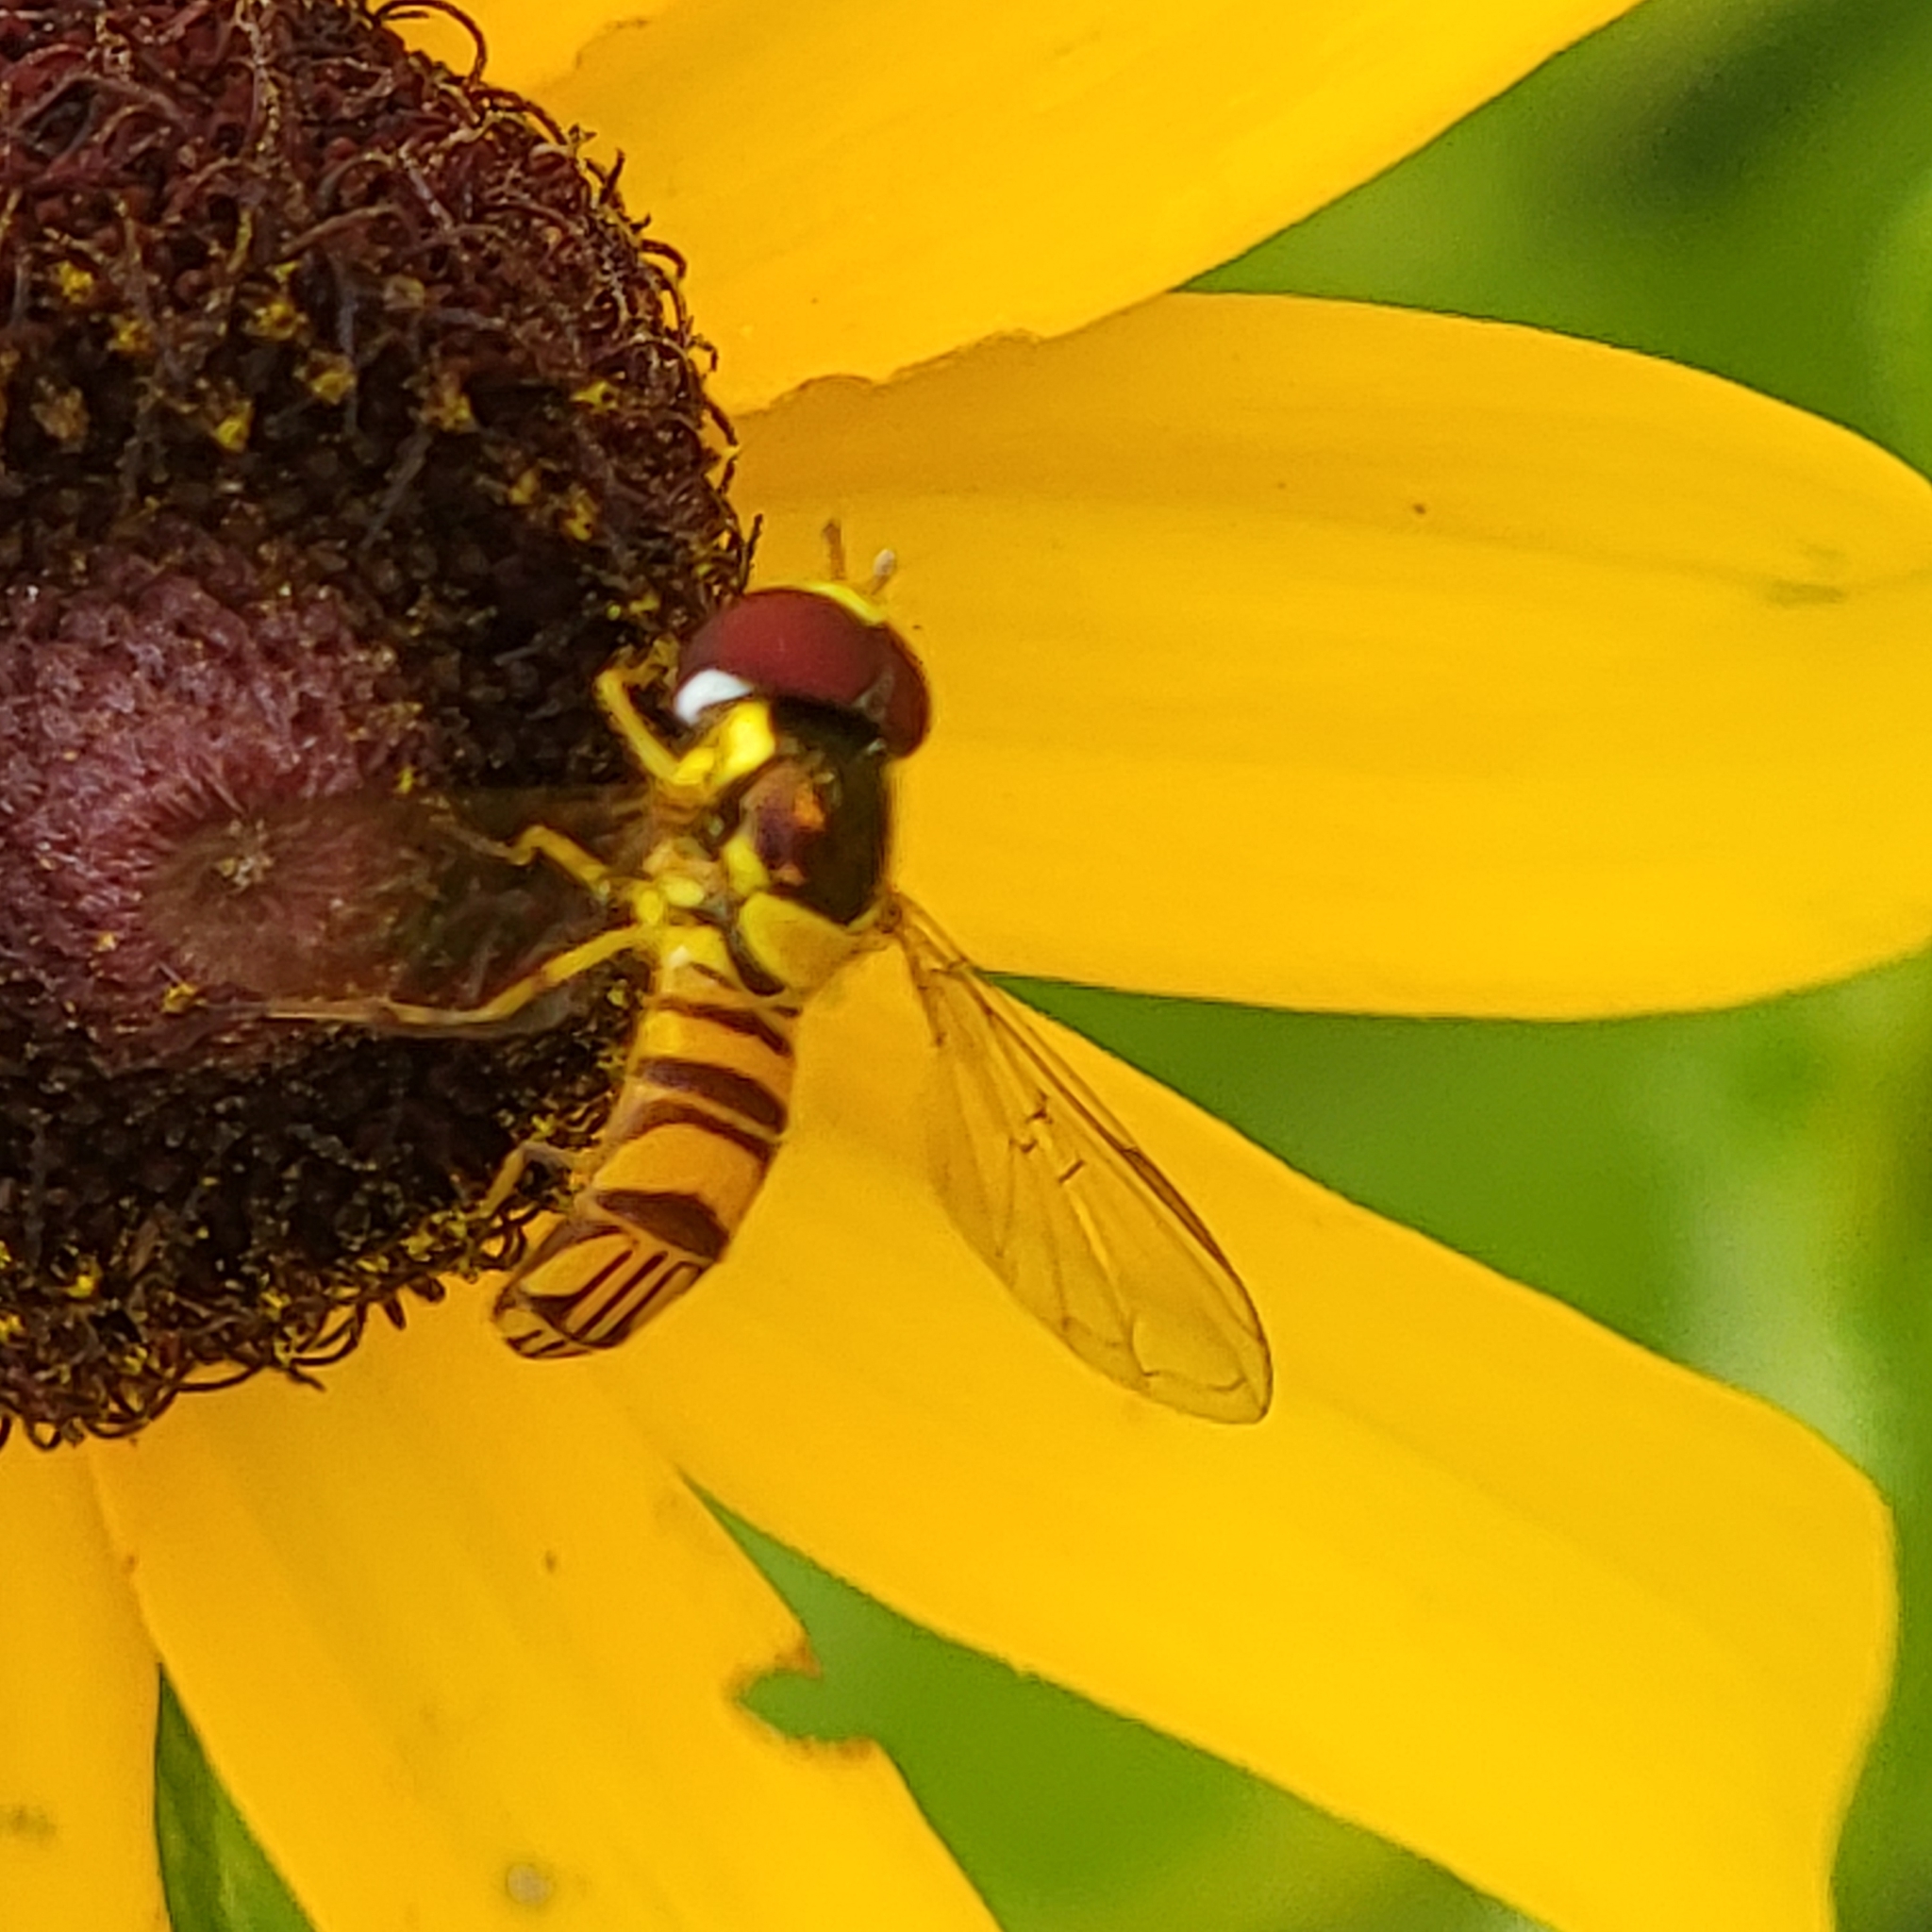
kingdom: Animalia
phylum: Arthropoda
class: Insecta
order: Diptera
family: Syrphidae
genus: Allograpta
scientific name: Allograpta obliqua
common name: Common oblique syrphid
